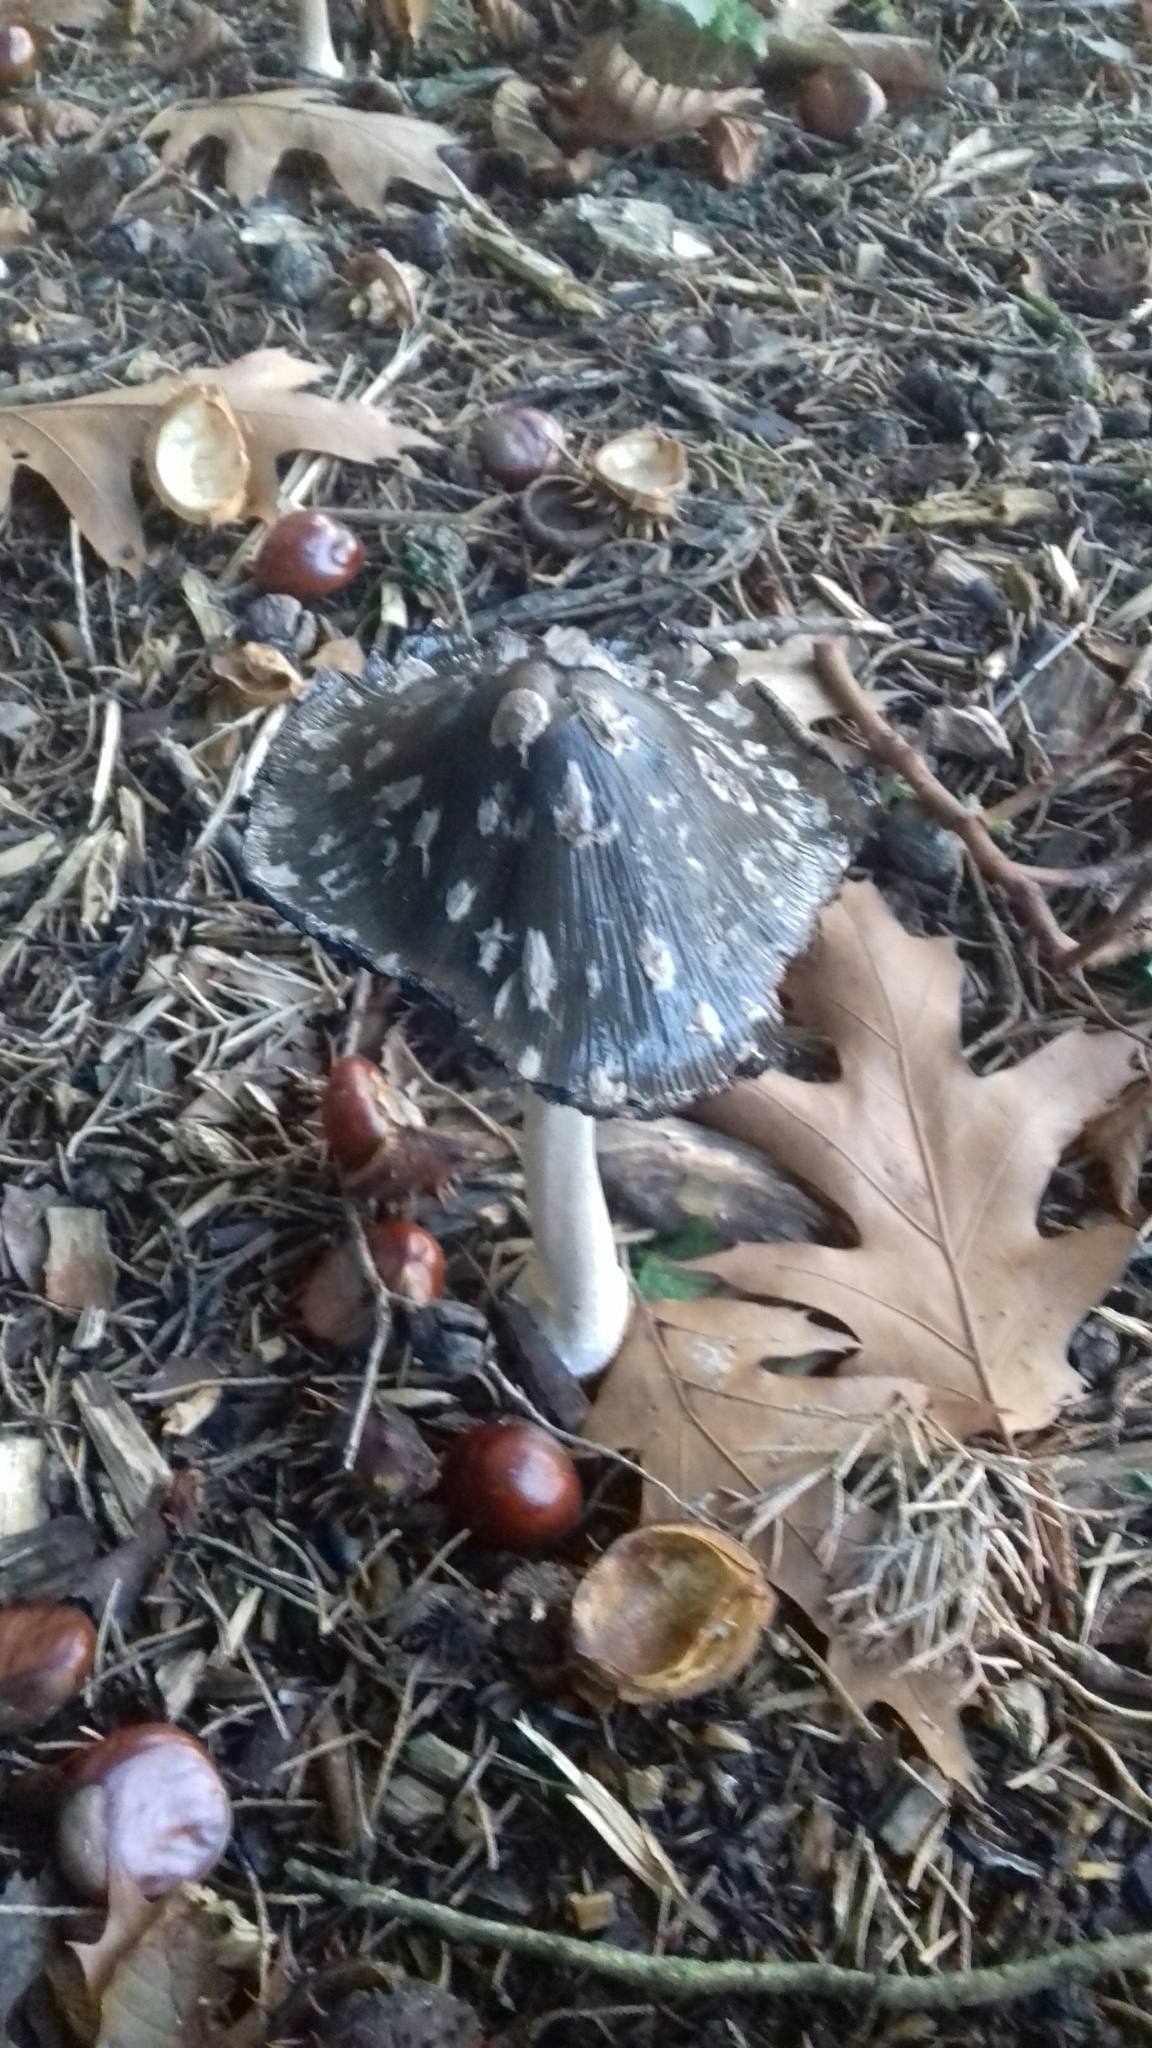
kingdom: Fungi
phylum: Basidiomycota
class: Agaricomycetes
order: Agaricales
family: Psathyrellaceae
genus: Coprinopsis
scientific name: Coprinopsis picacea
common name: Magpie inkcap
